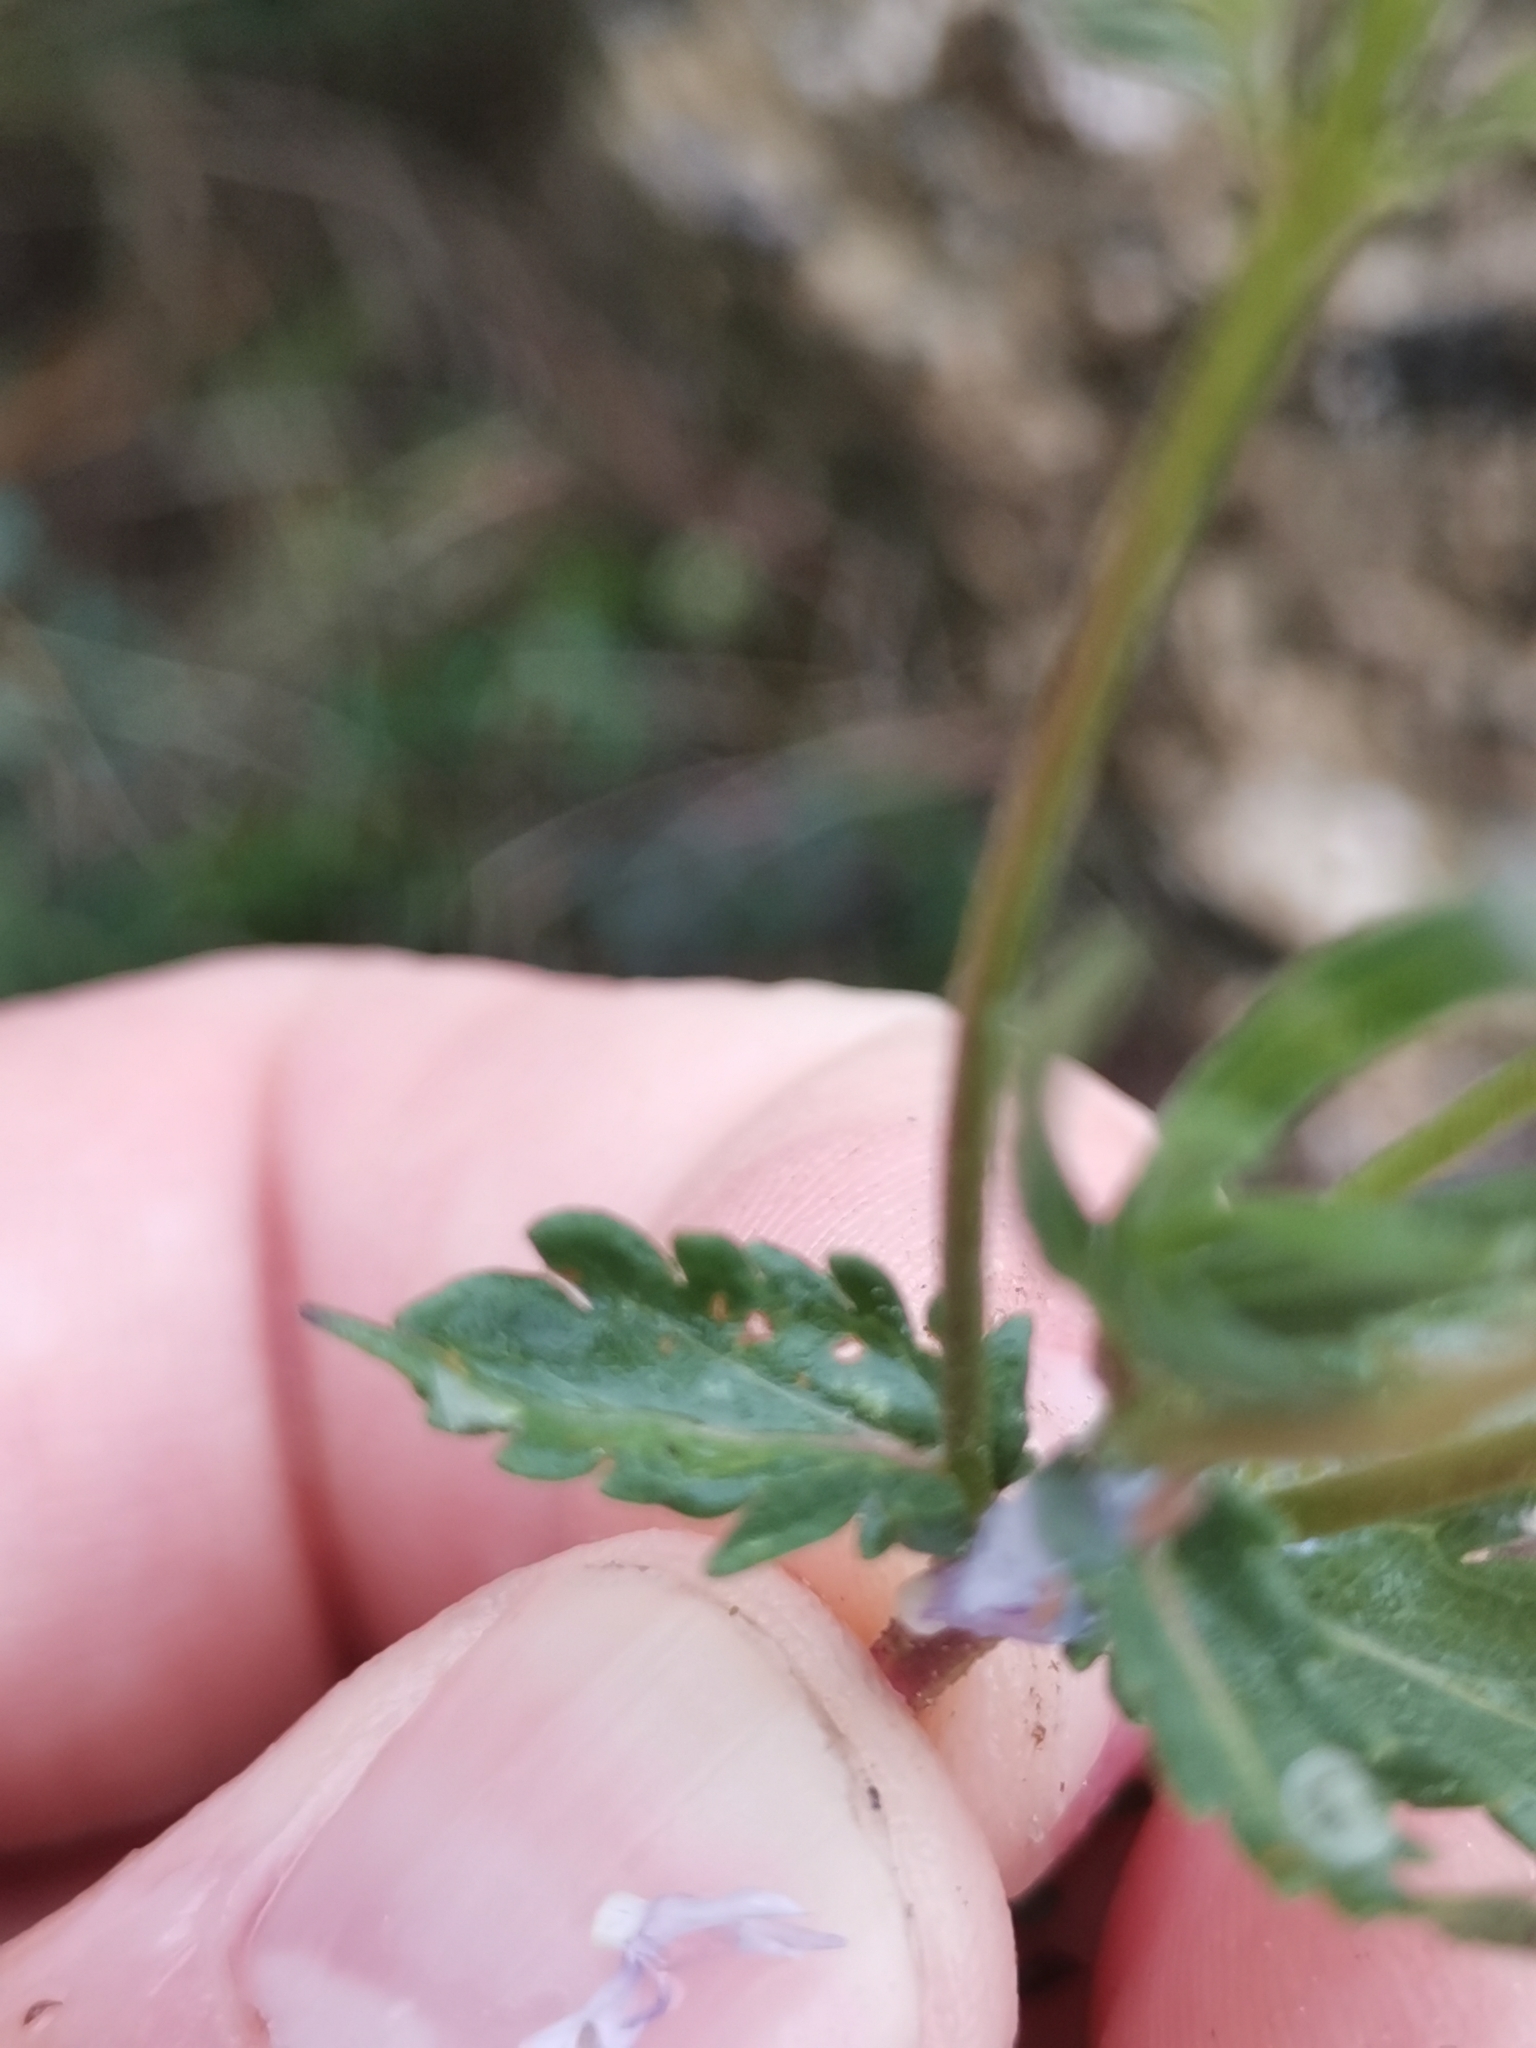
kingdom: Plantae
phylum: Tracheophyta
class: Magnoliopsida
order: Lamiales
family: Plantaginaceae
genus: Veronica
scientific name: Veronica prostrata
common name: Prostrate speedwell
